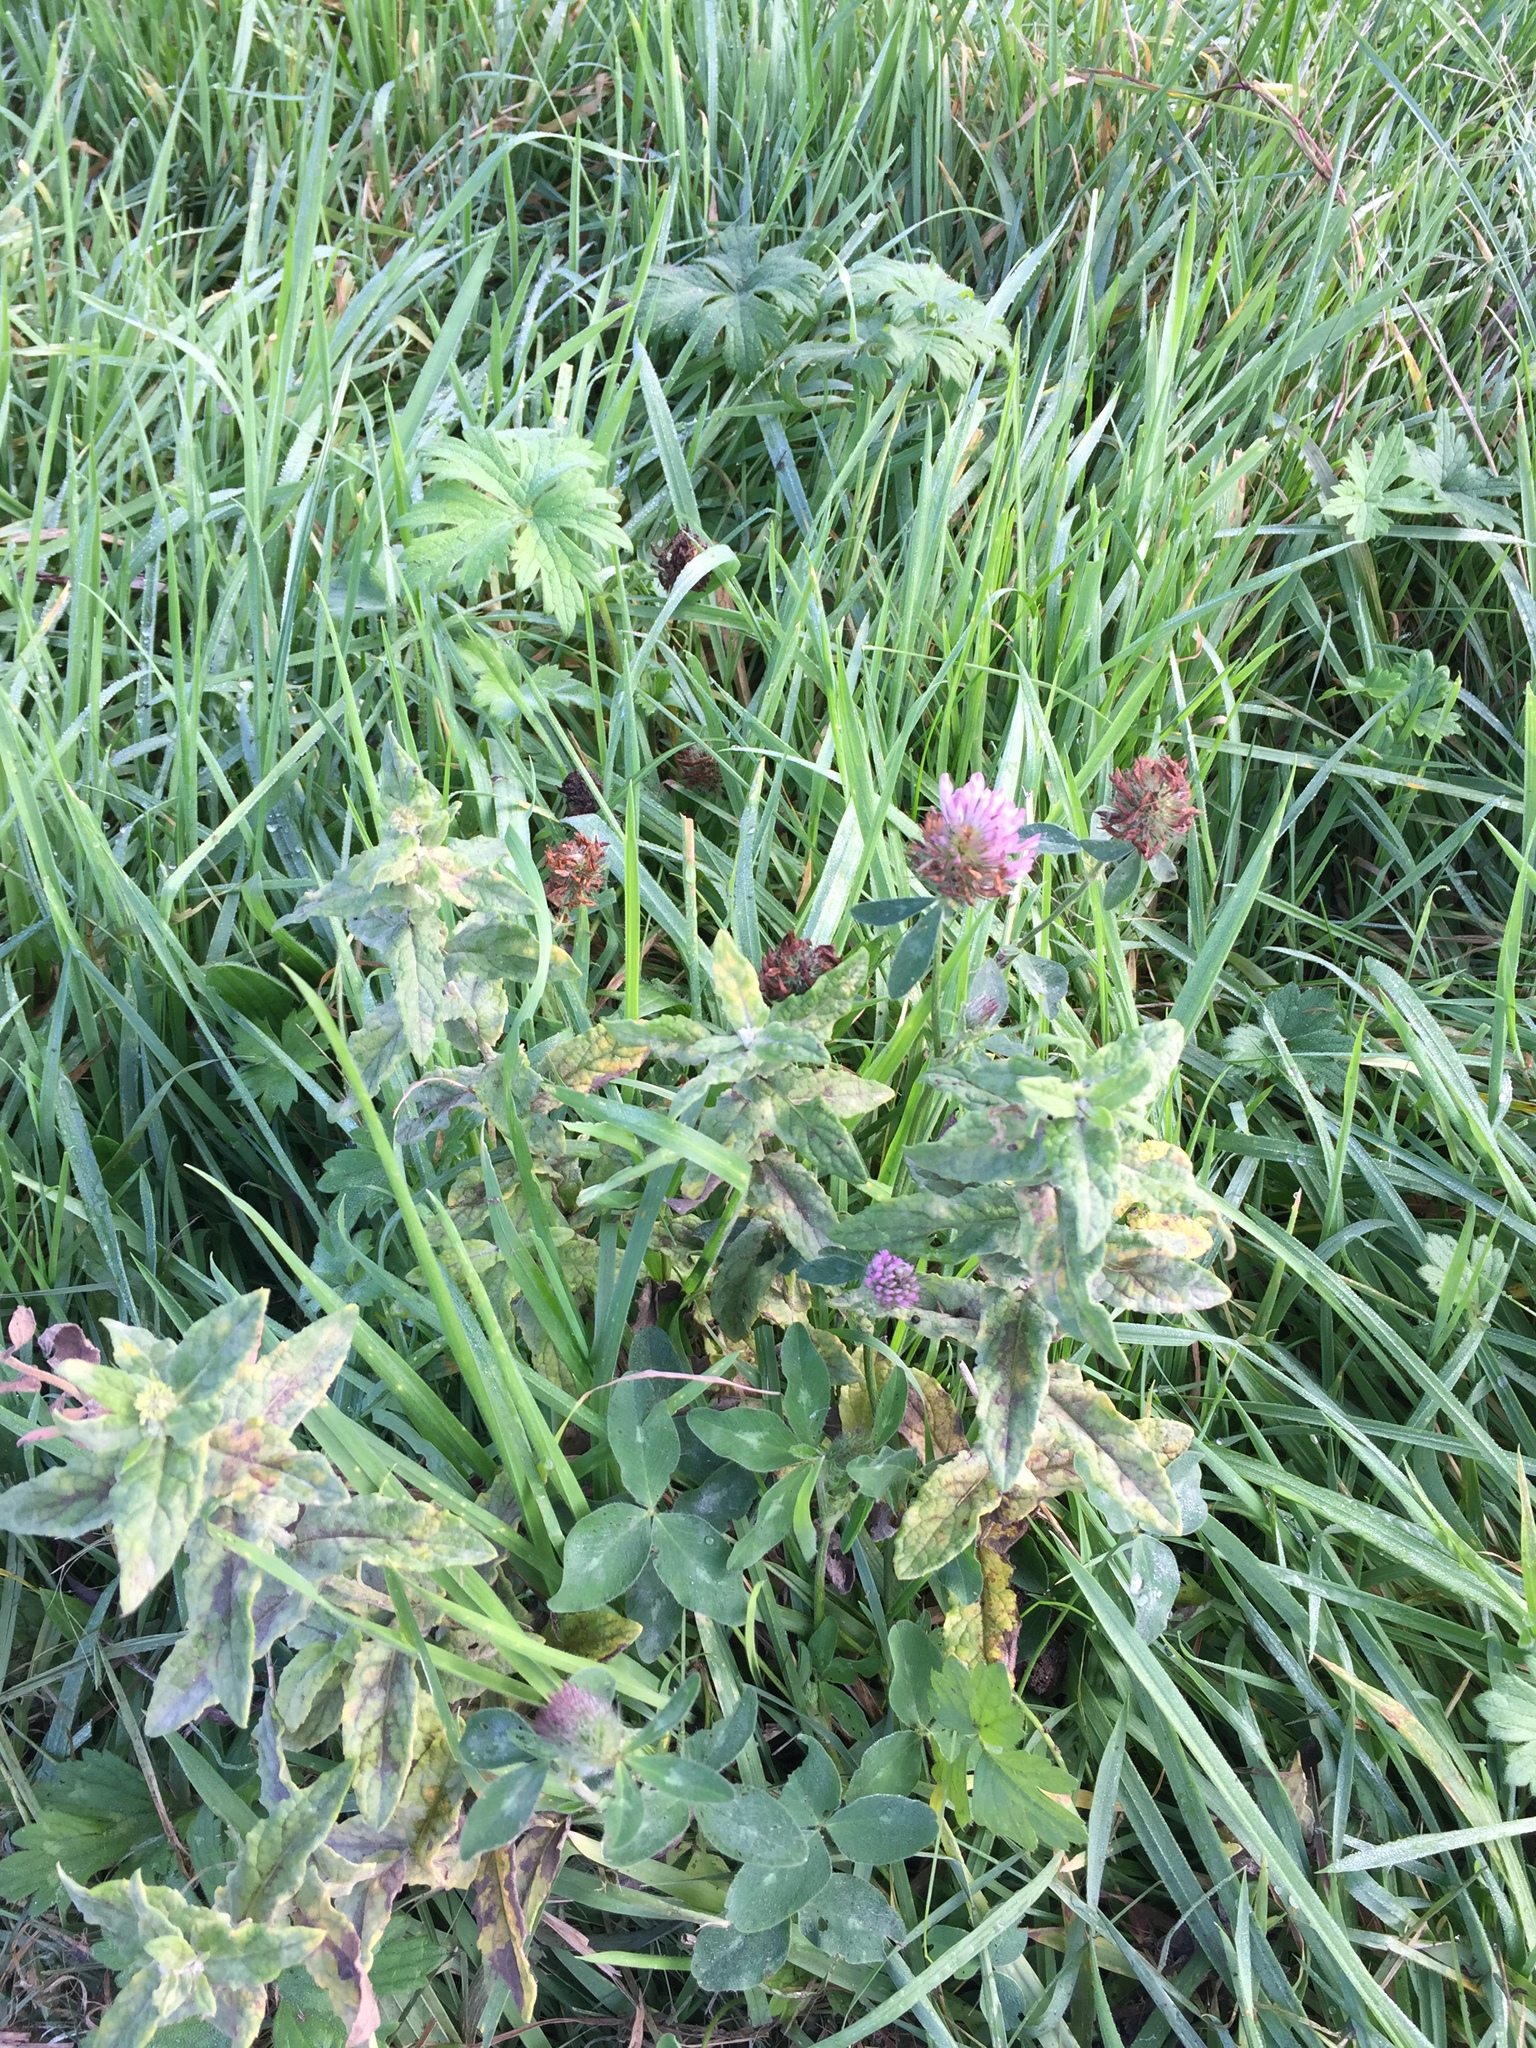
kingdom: Plantae
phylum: Tracheophyta
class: Magnoliopsida
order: Fabales
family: Fabaceae
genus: Trifolium
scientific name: Trifolium pratense
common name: Red clover
